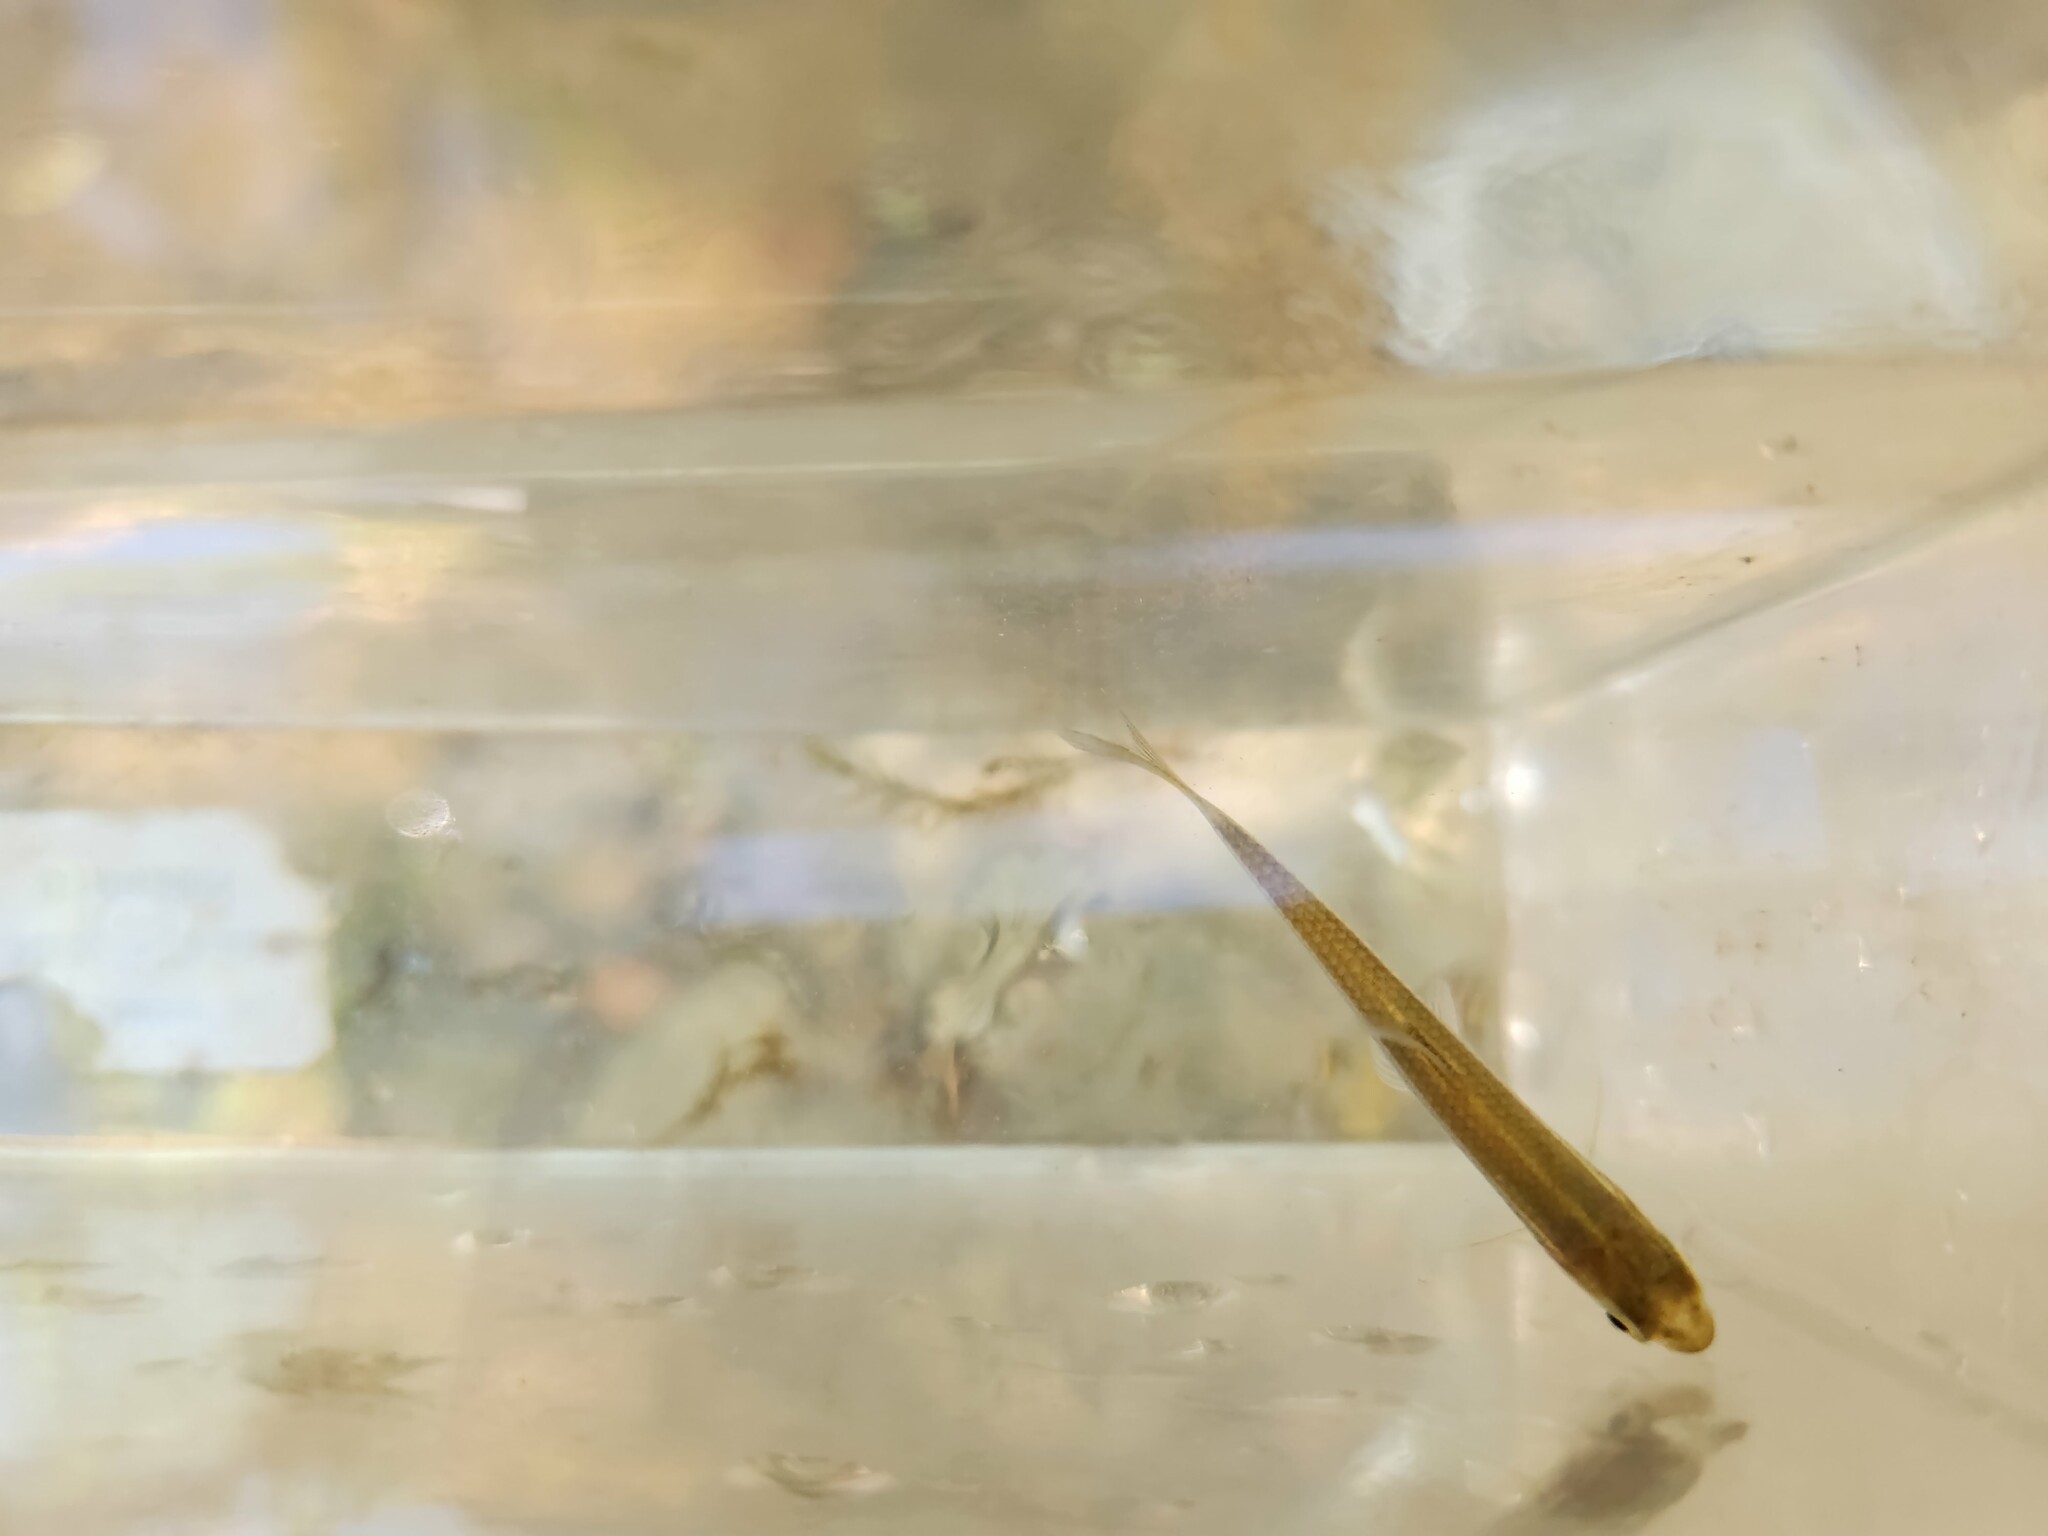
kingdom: Animalia
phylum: Chordata
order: Cypriniformes
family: Cyprinidae
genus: Luxilus
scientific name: Luxilus chrysocephalus
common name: Striped shiner
